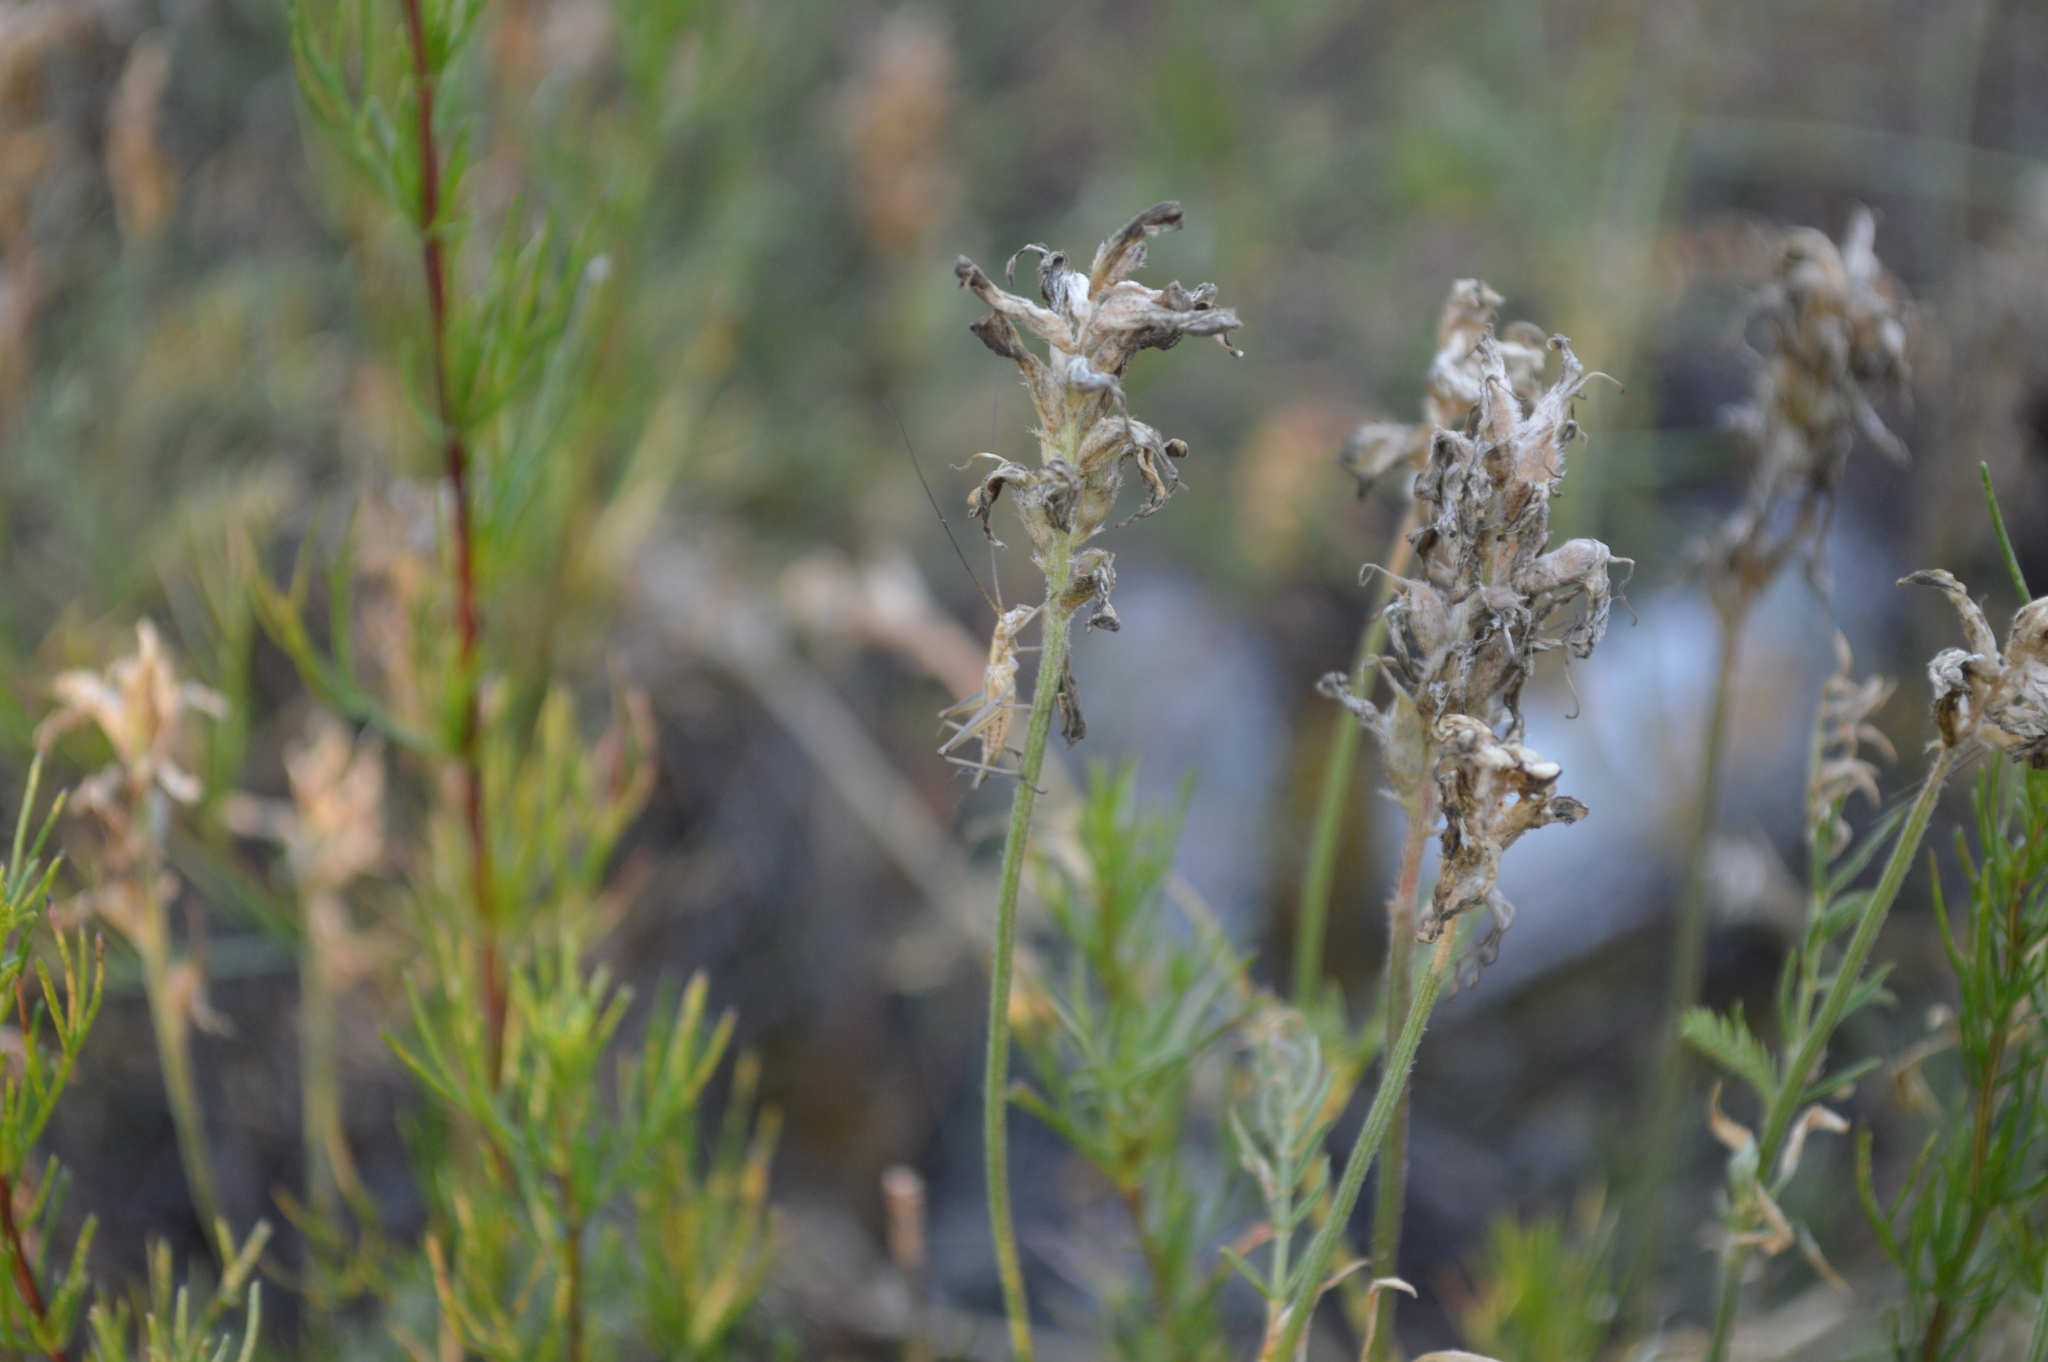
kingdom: Animalia
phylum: Arthropoda
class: Insecta
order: Orthoptera
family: Gryllidae
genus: Oecanthus
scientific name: Oecanthus pellucens
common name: Tree-cricket
